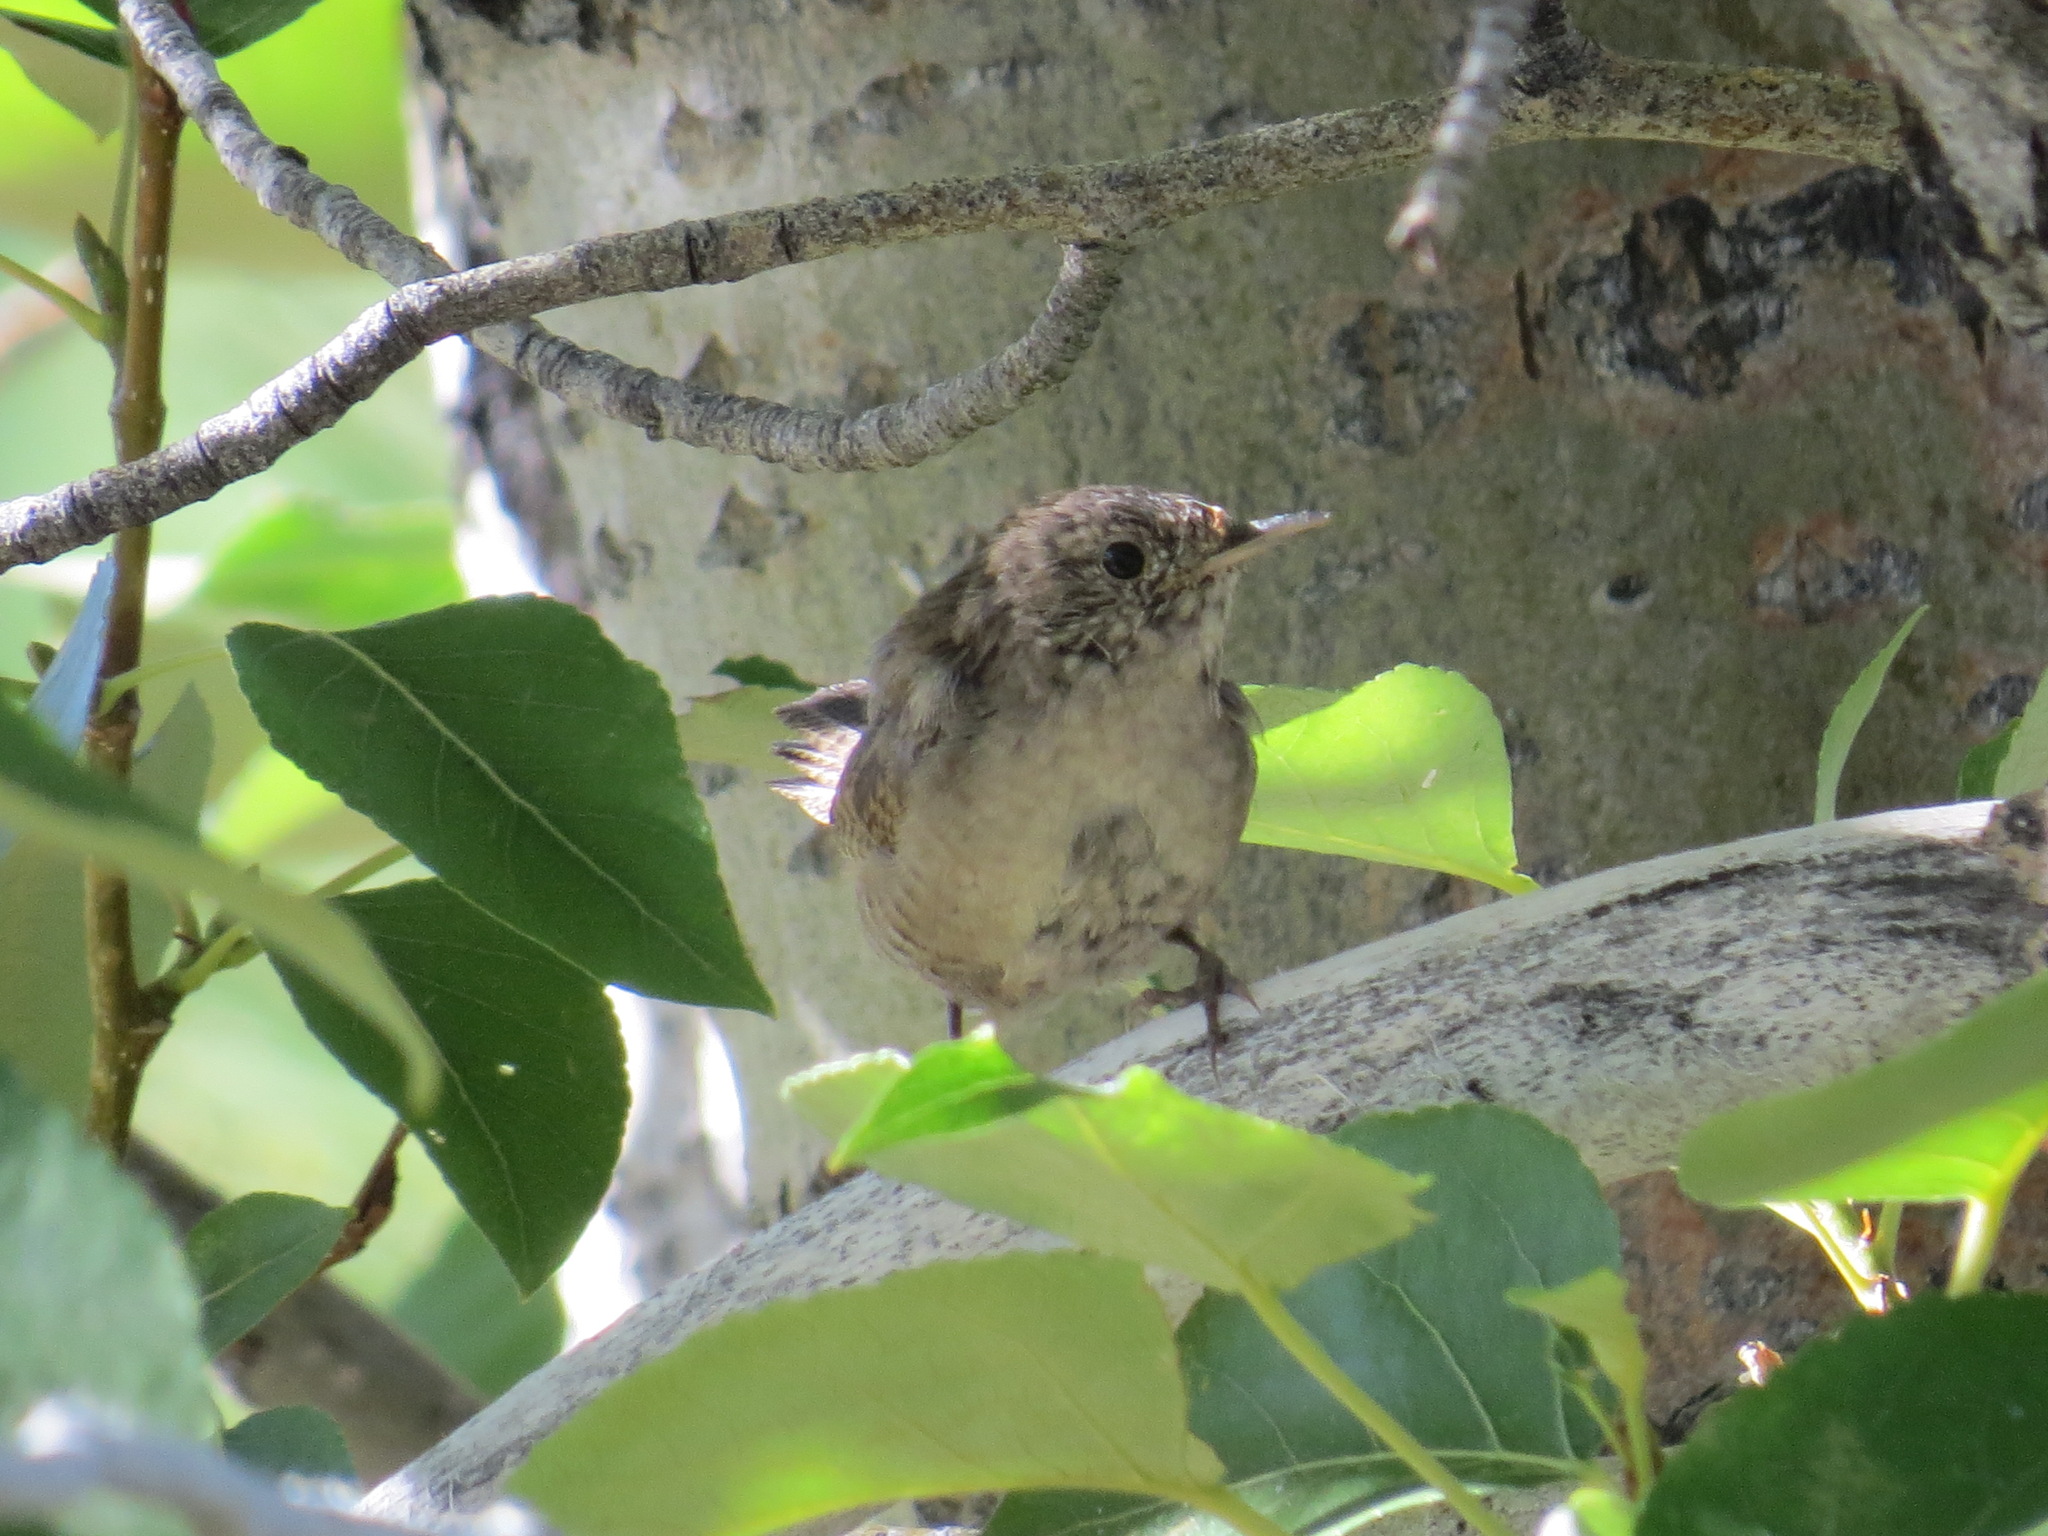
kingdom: Animalia
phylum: Chordata
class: Aves
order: Passeriformes
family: Troglodytidae
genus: Troglodytes
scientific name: Troglodytes aedon
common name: House wren
